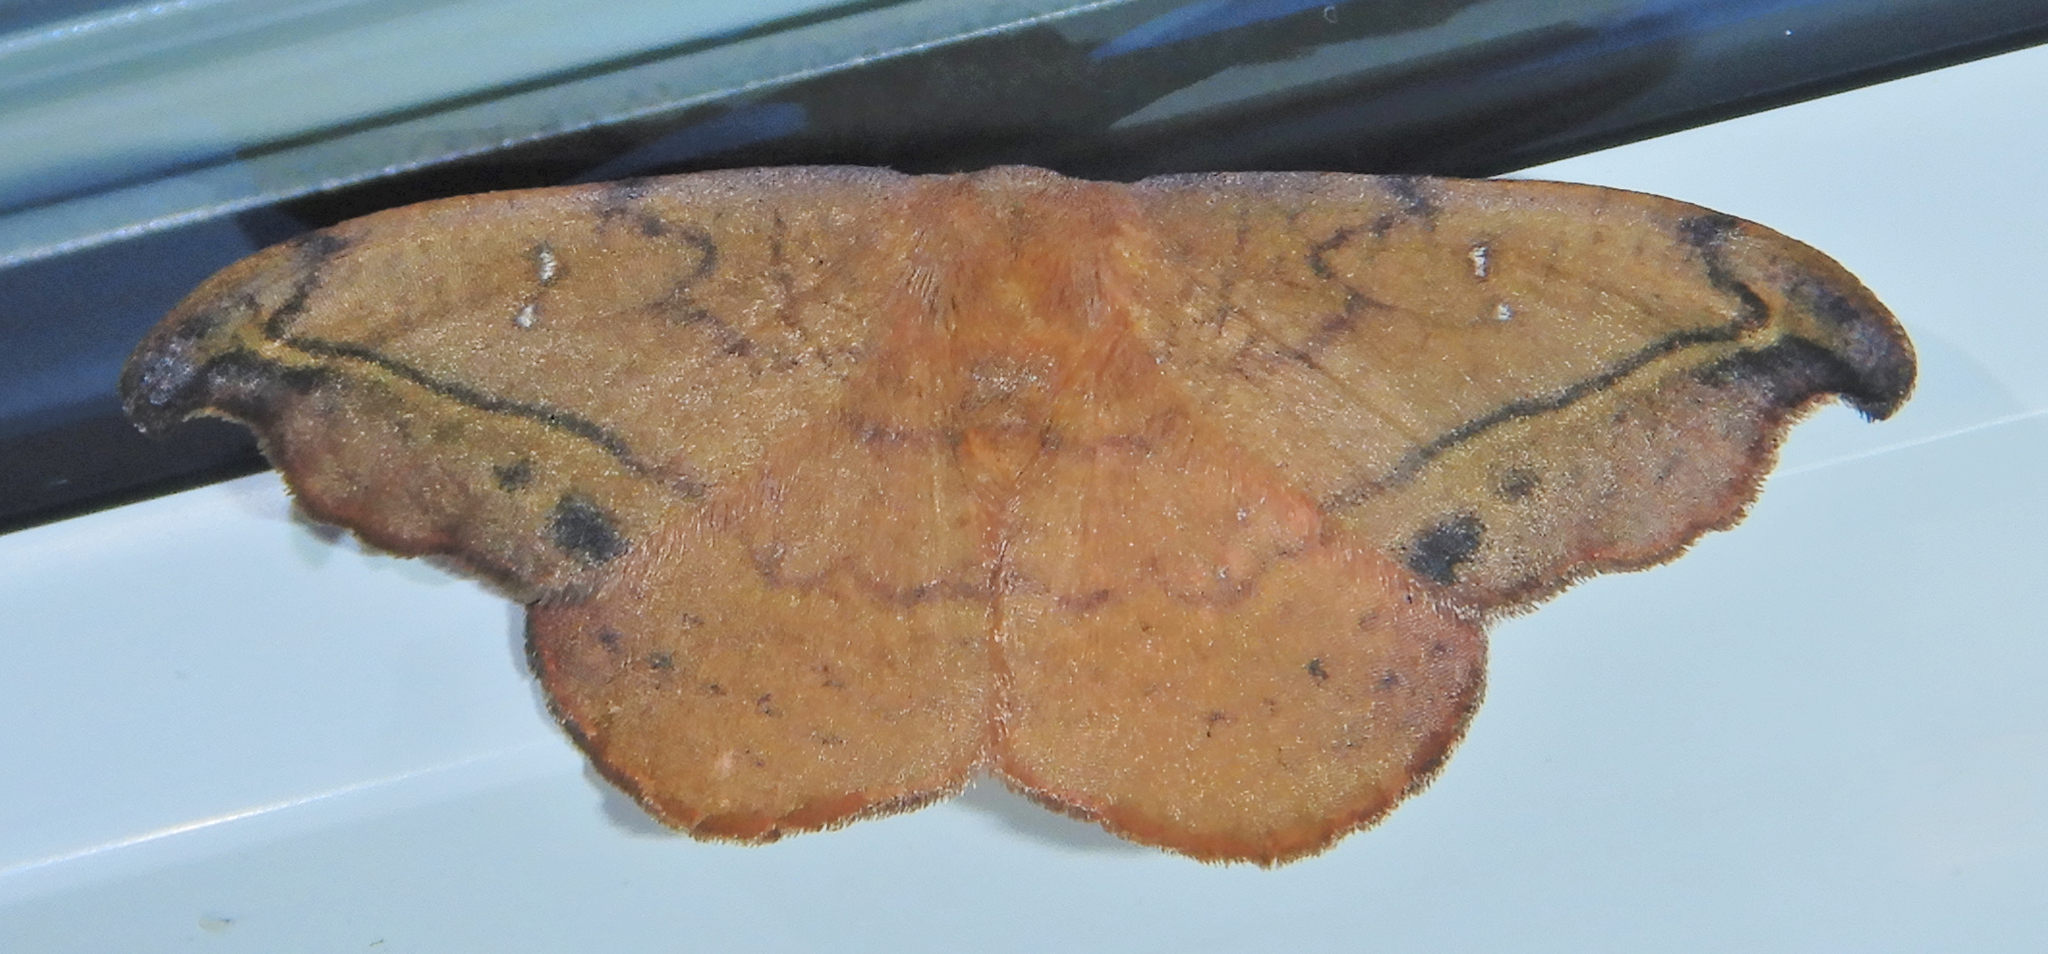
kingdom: Animalia
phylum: Arthropoda
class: Insecta
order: Lepidoptera
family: Drepanidae
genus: Oreta
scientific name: Oreta rosea
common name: Rose hooktip
